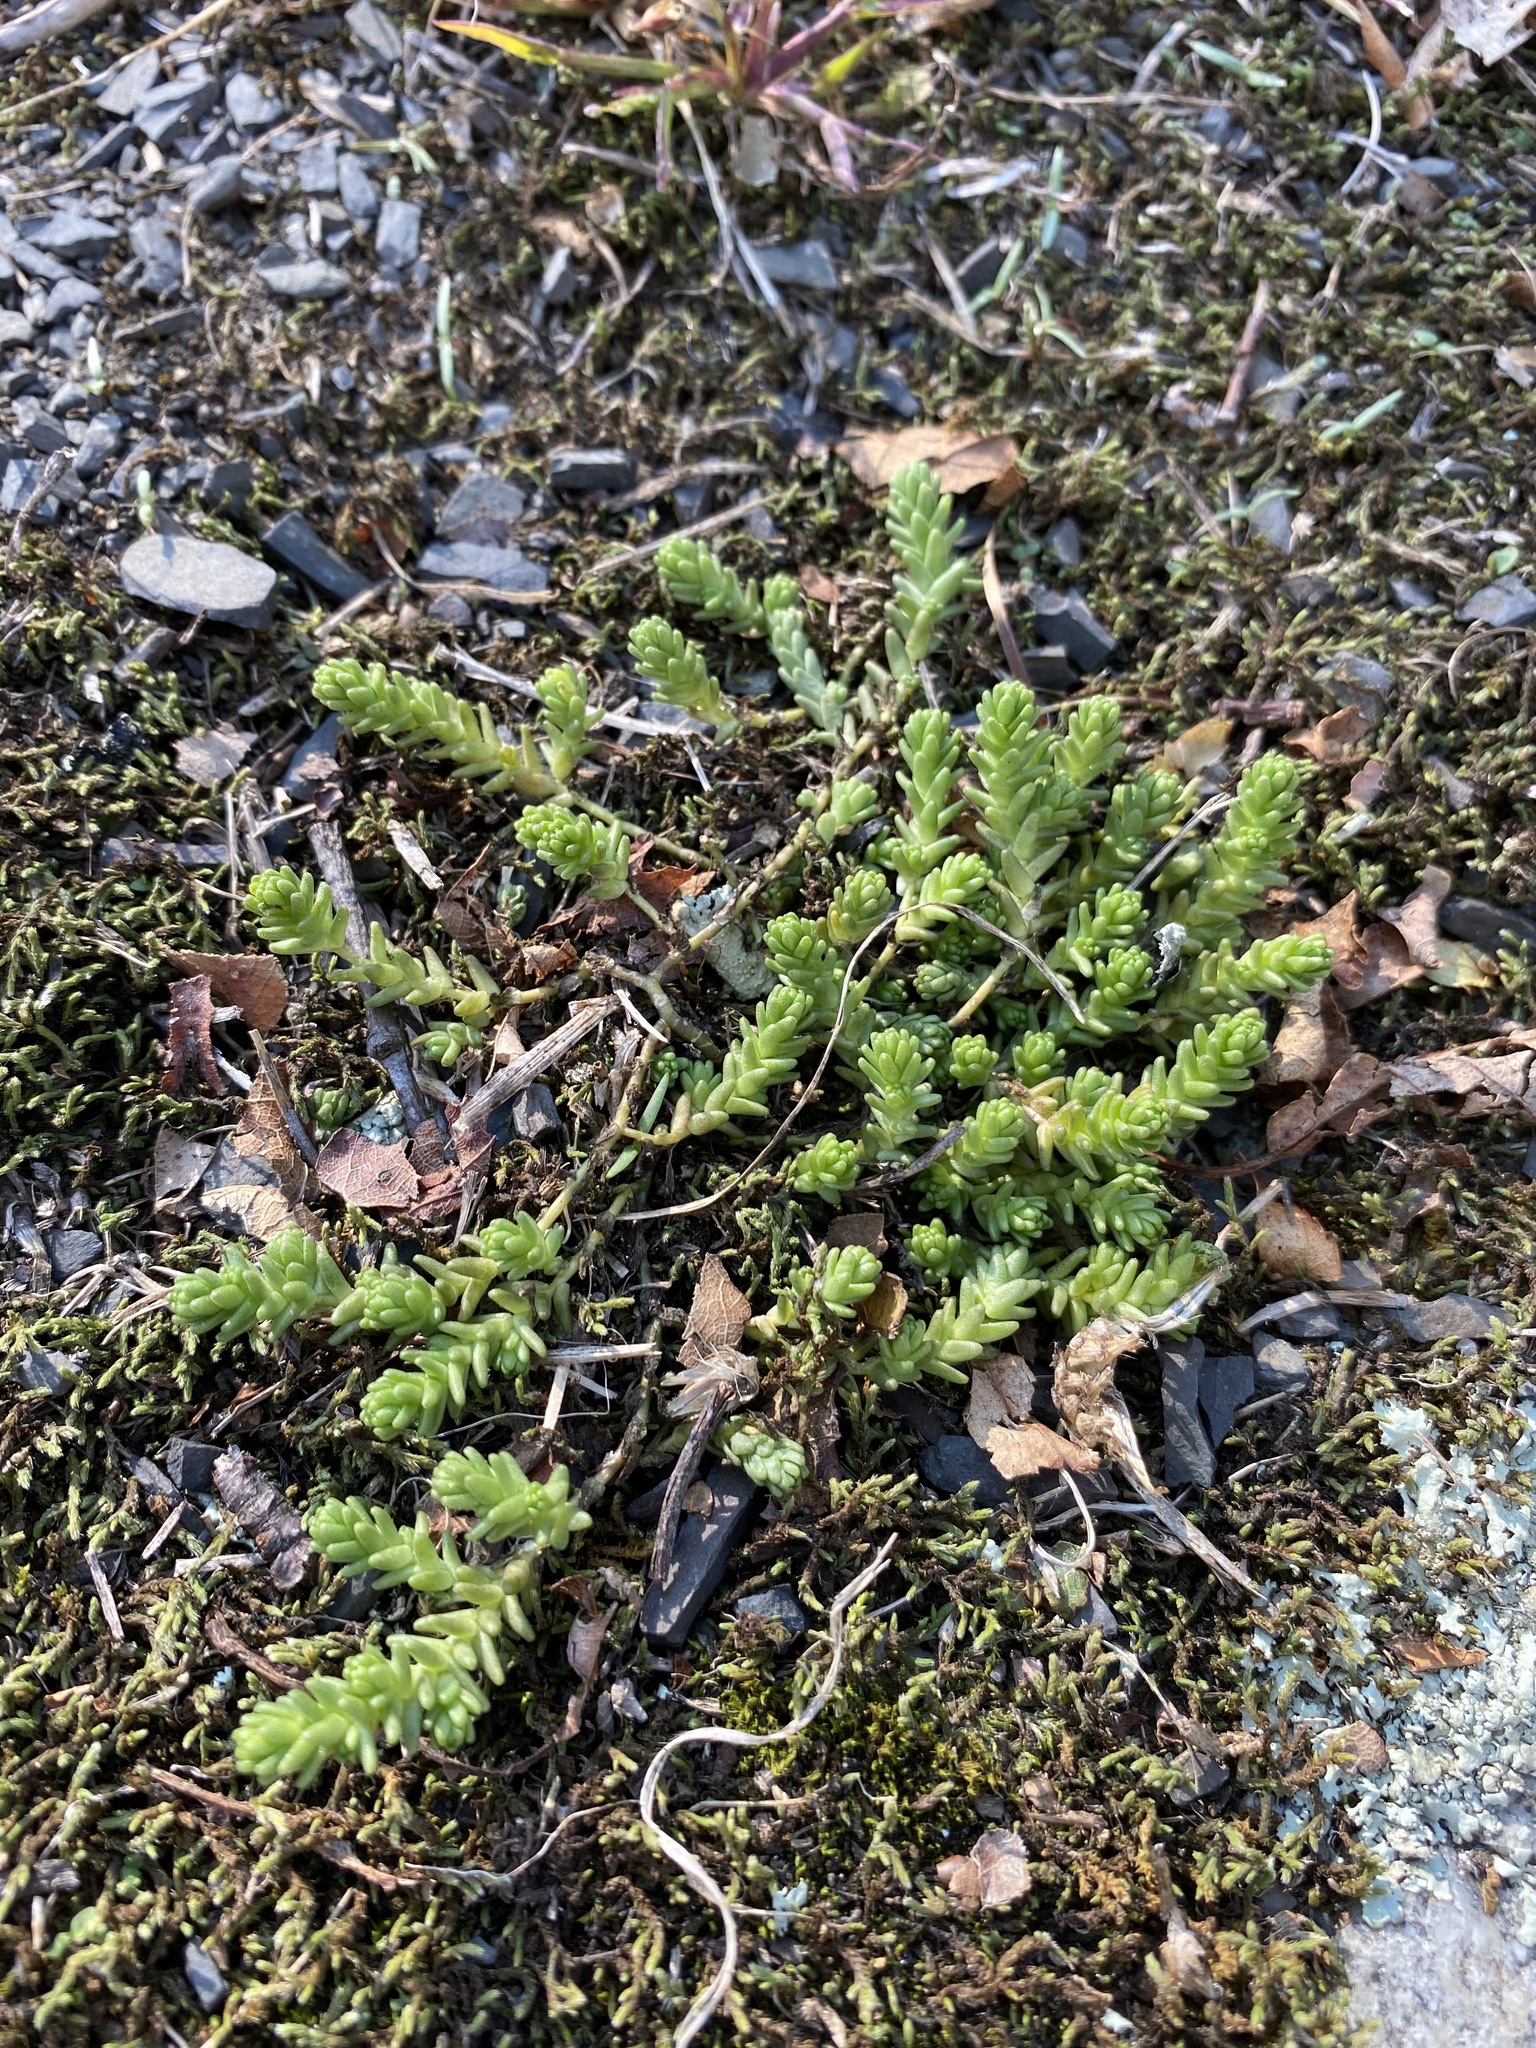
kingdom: Plantae
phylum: Tracheophyta
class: Magnoliopsida
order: Saxifragales
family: Crassulaceae
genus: Sedum
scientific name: Sedum acre
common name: Biting stonecrop
